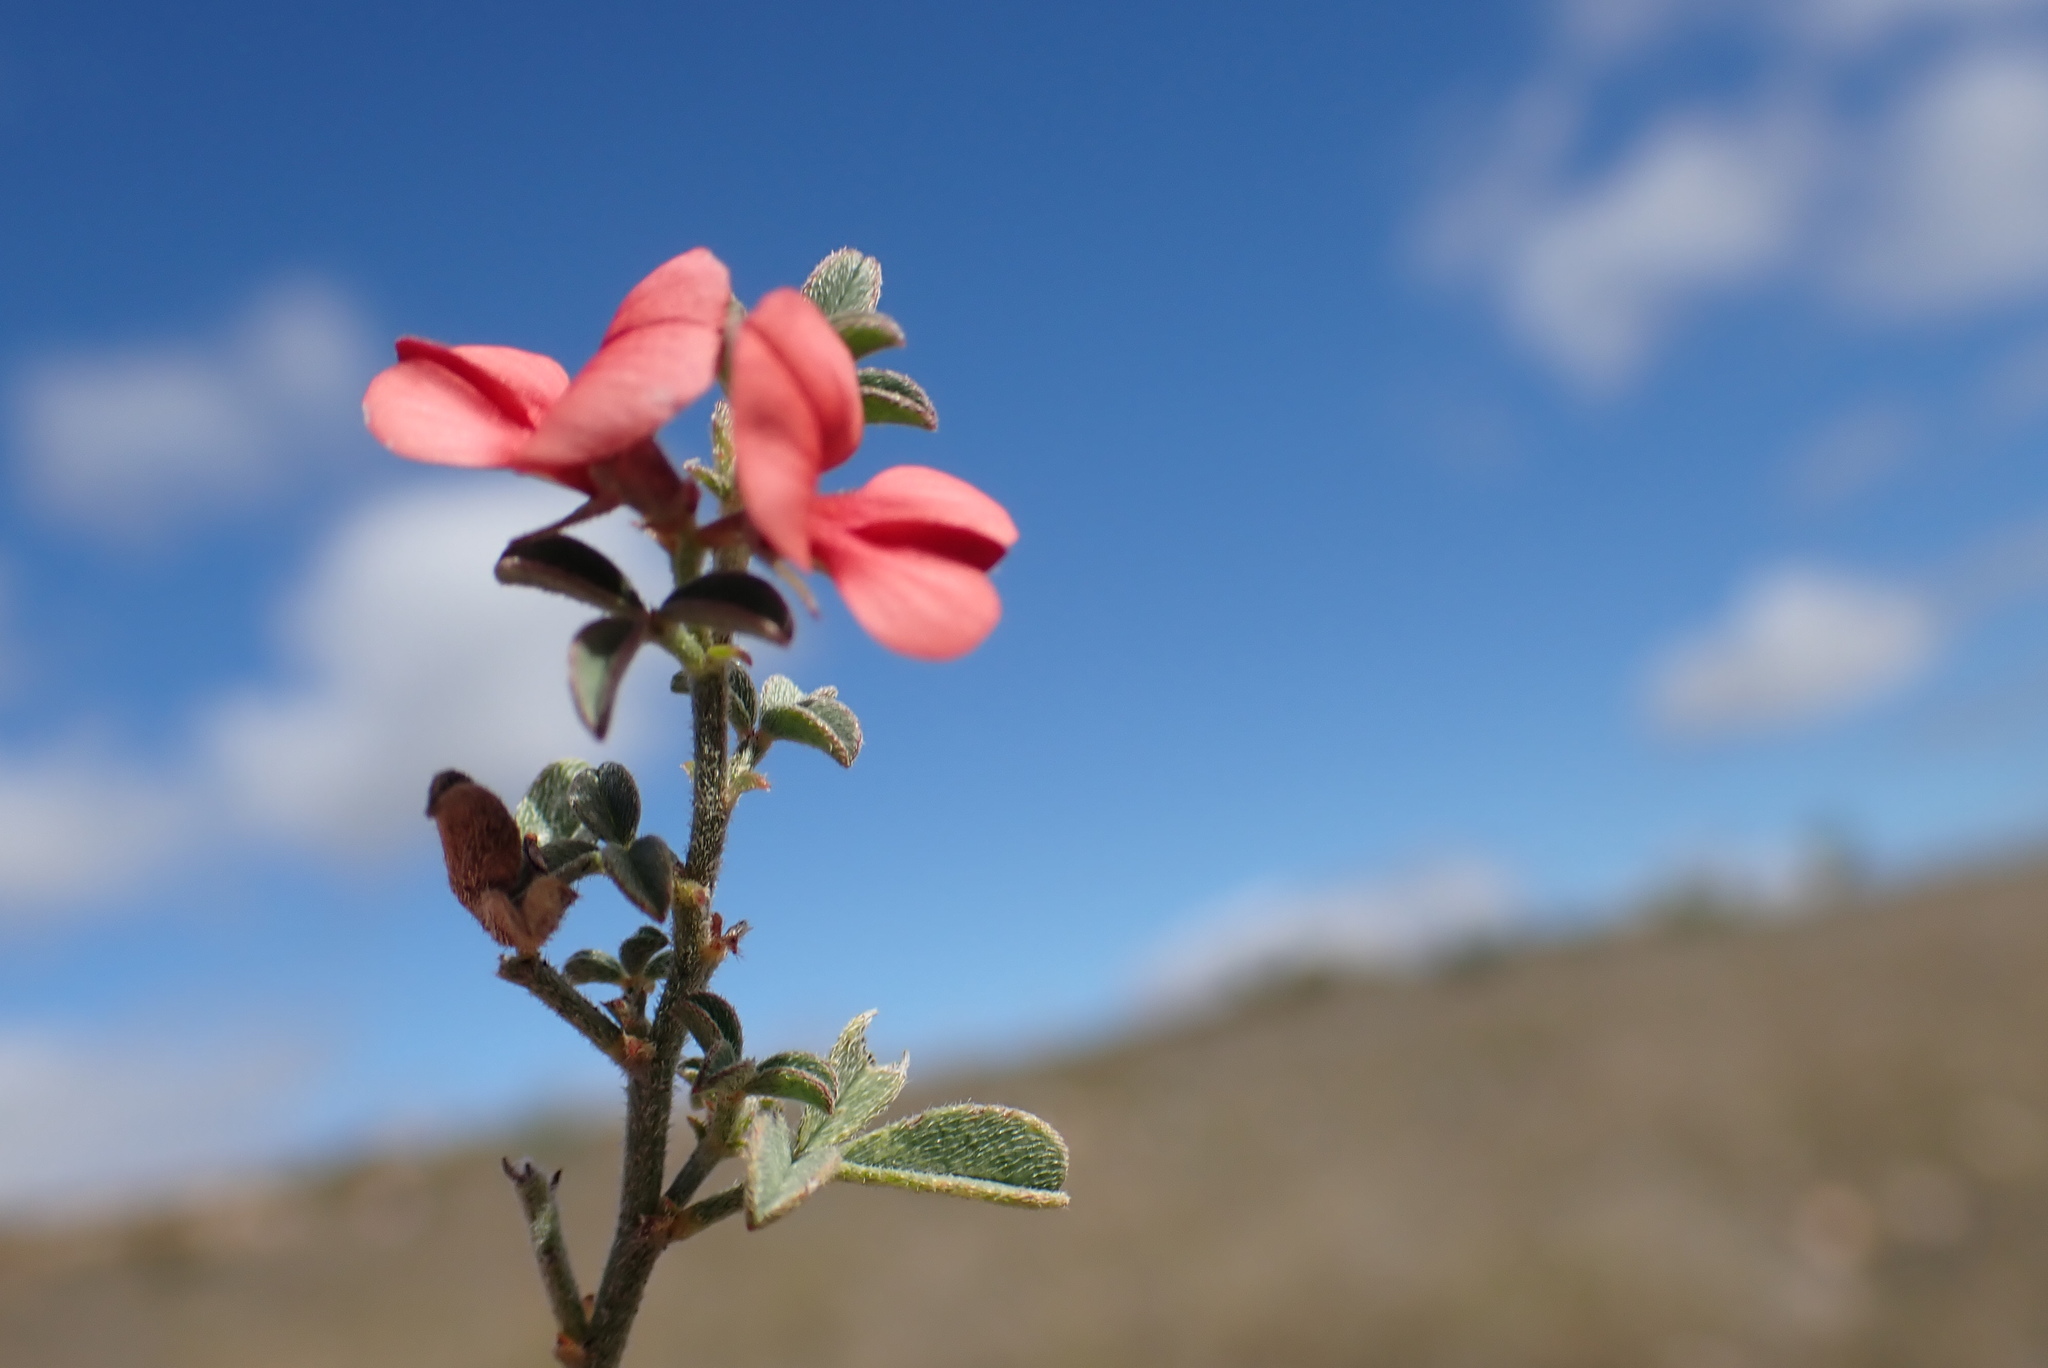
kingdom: Plantae
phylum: Tracheophyta
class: Magnoliopsida
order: Fabales
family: Fabaceae
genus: Indigofera
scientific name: Indigofera priorii
